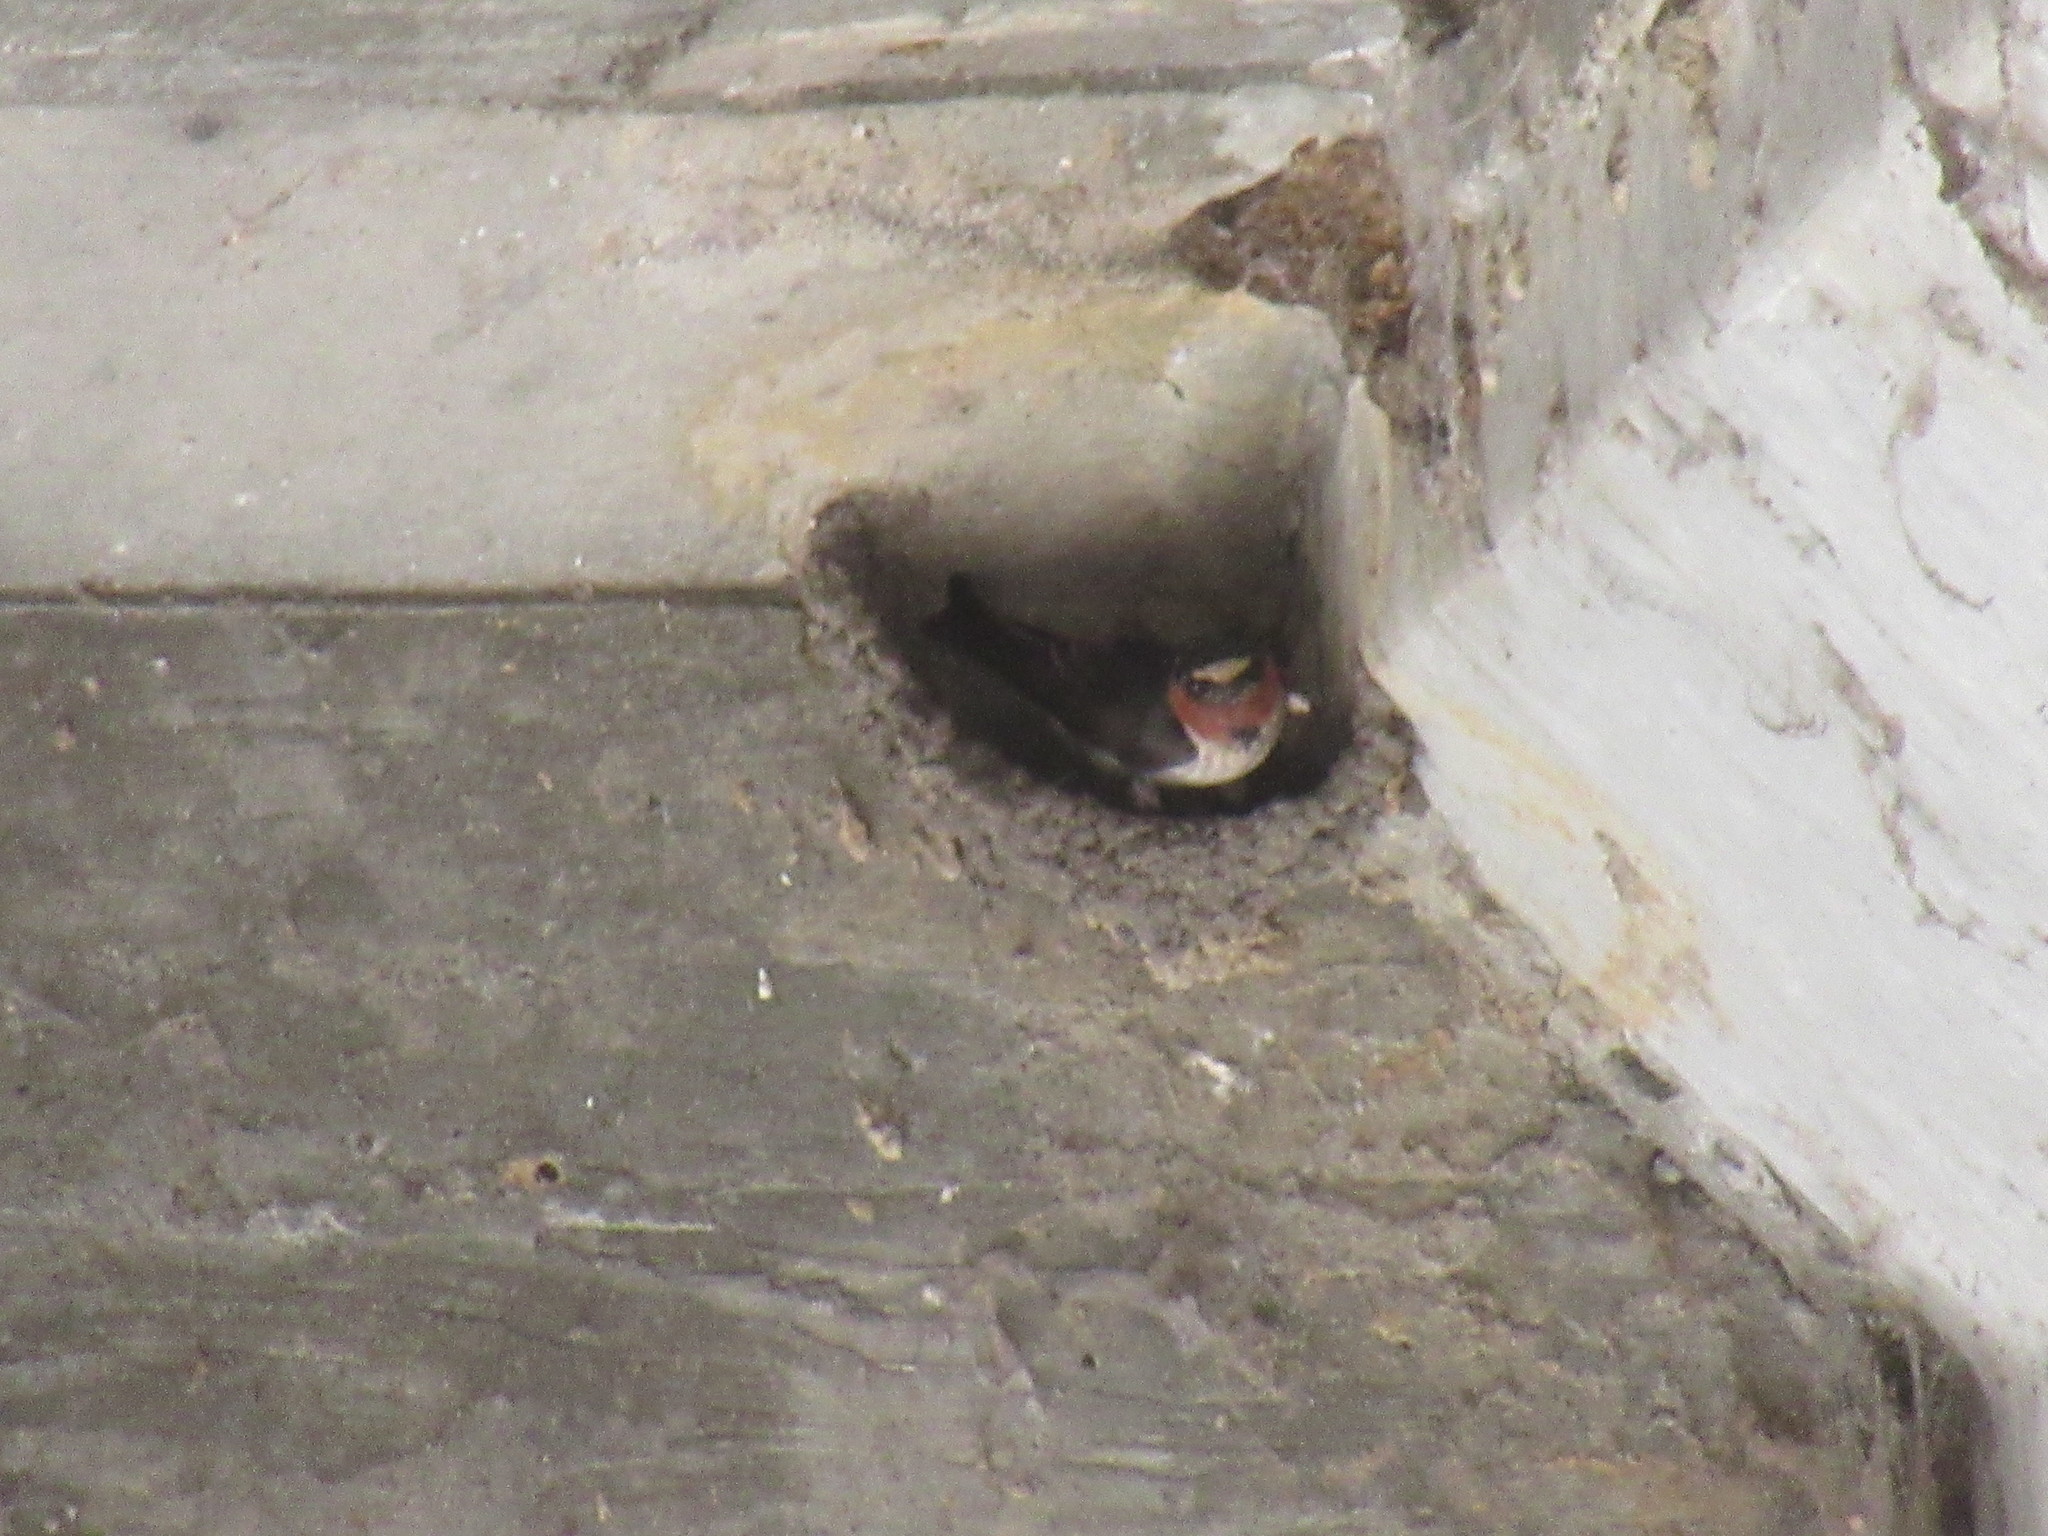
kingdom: Animalia
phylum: Chordata
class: Aves
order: Passeriformes
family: Hirundinidae
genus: Petrochelidon
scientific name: Petrochelidon pyrrhonota
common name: American cliff swallow
